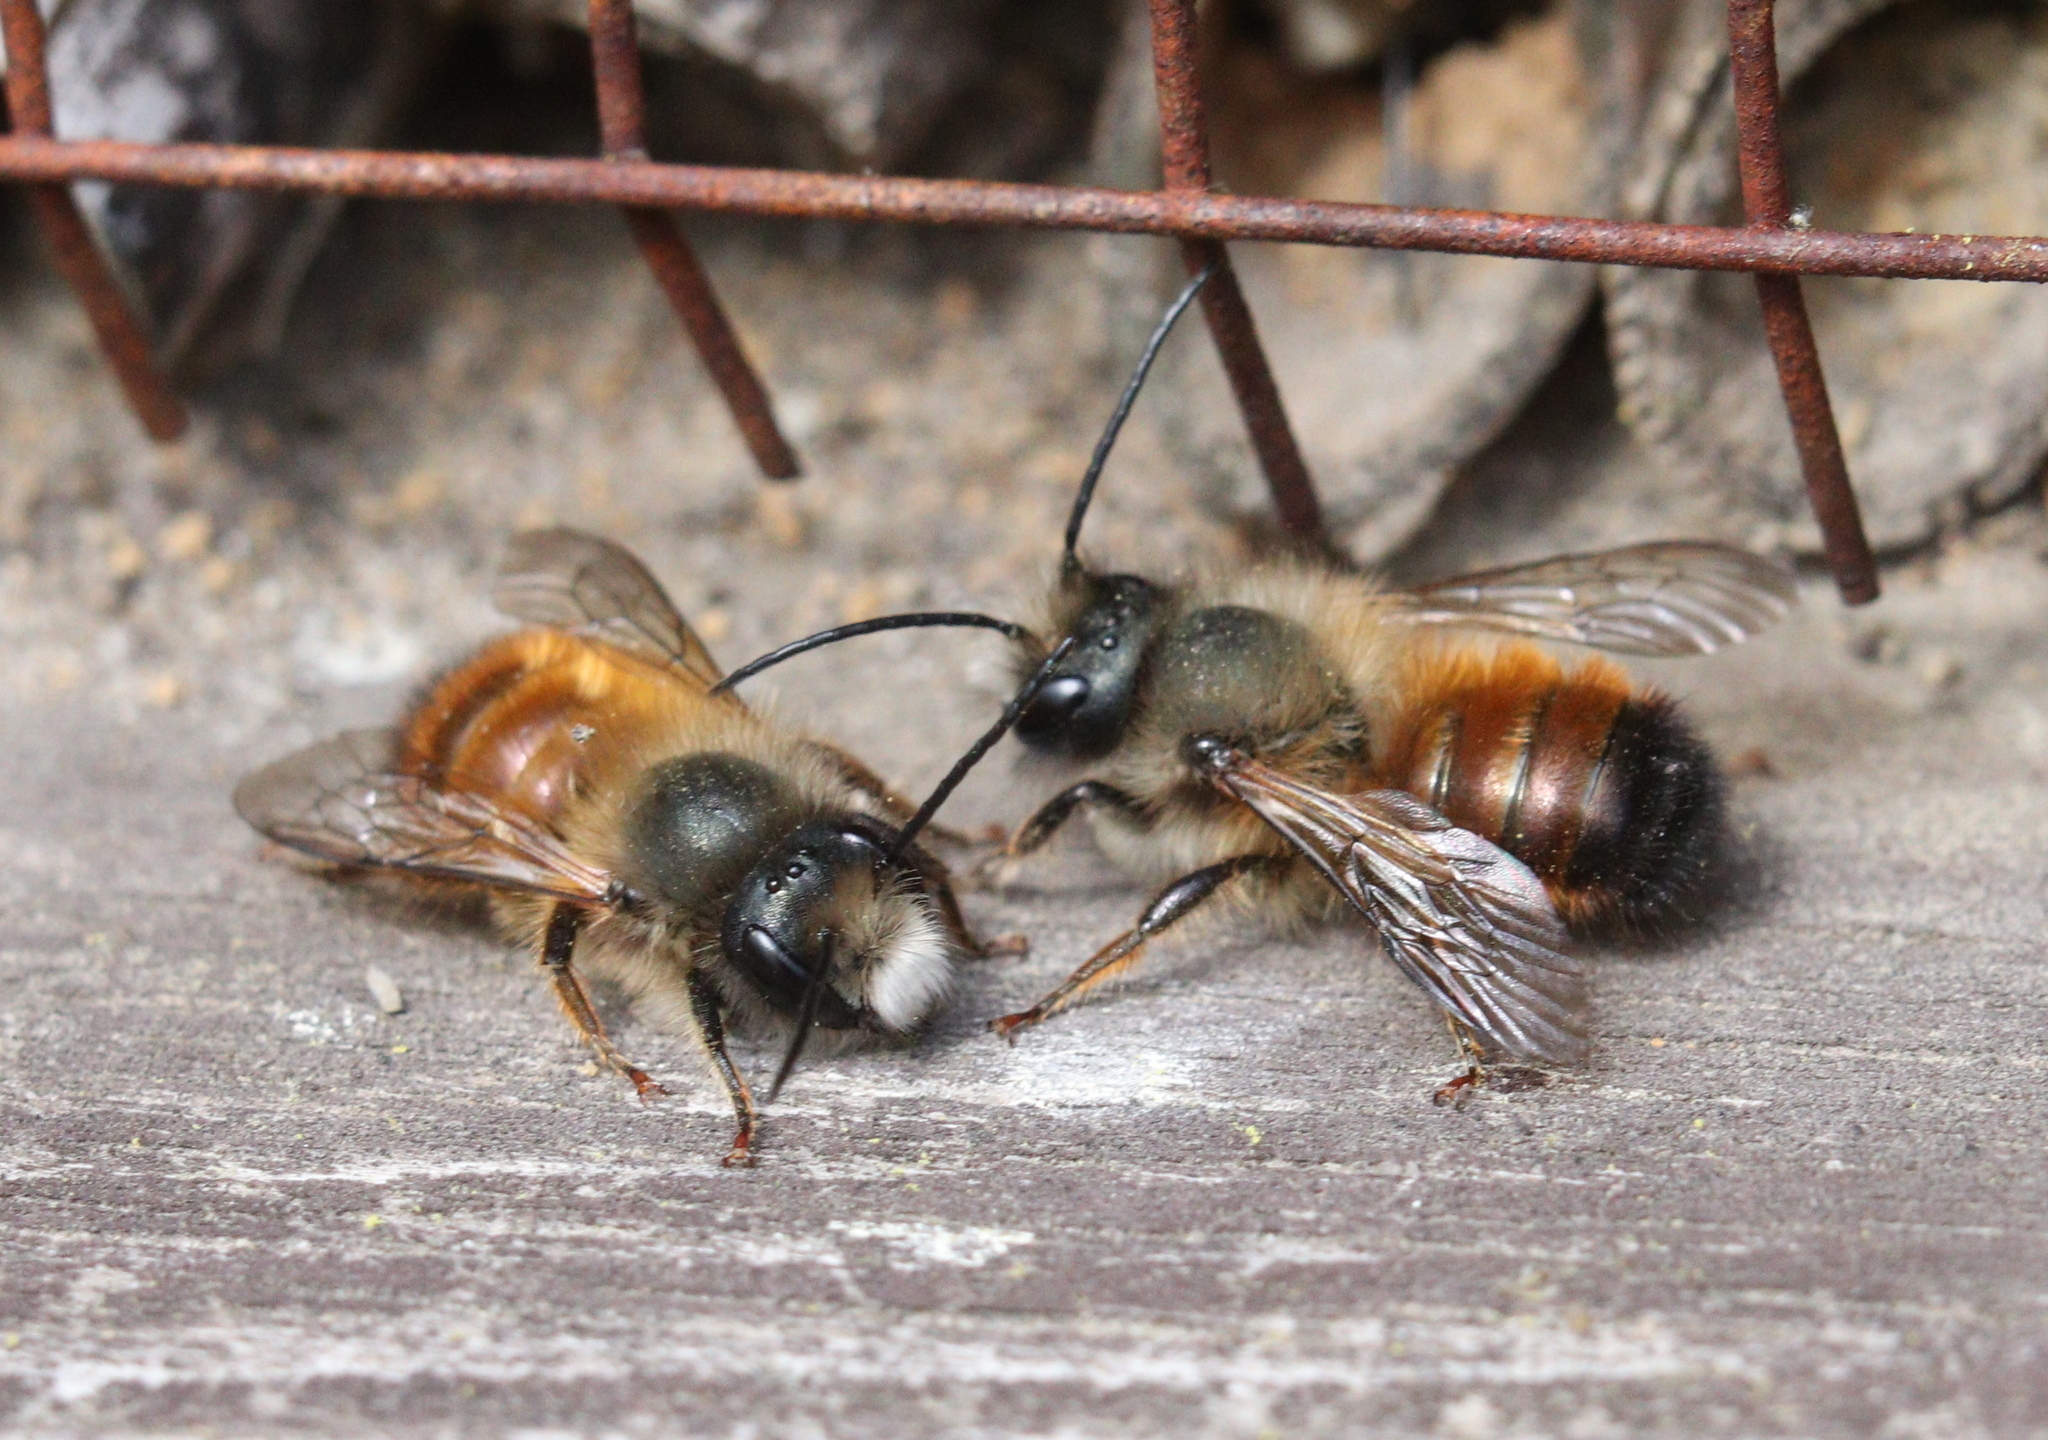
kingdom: Animalia
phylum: Arthropoda
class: Insecta
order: Hymenoptera
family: Megachilidae
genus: Osmia
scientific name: Osmia bicornis
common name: Red mason bee
